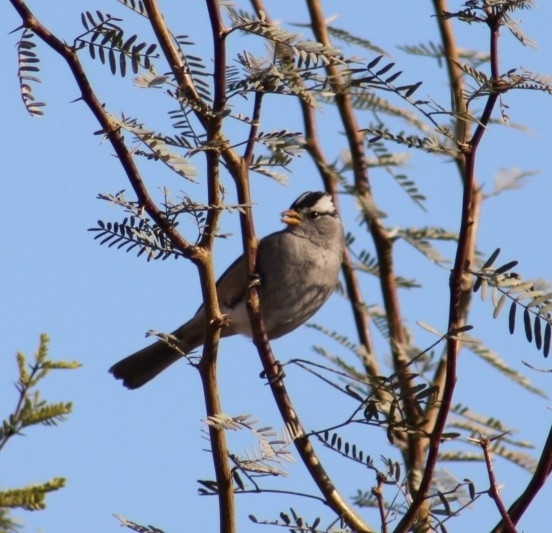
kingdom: Animalia
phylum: Chordata
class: Aves
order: Passeriformes
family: Passerellidae
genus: Zonotrichia
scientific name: Zonotrichia leucophrys
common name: White-crowned sparrow
